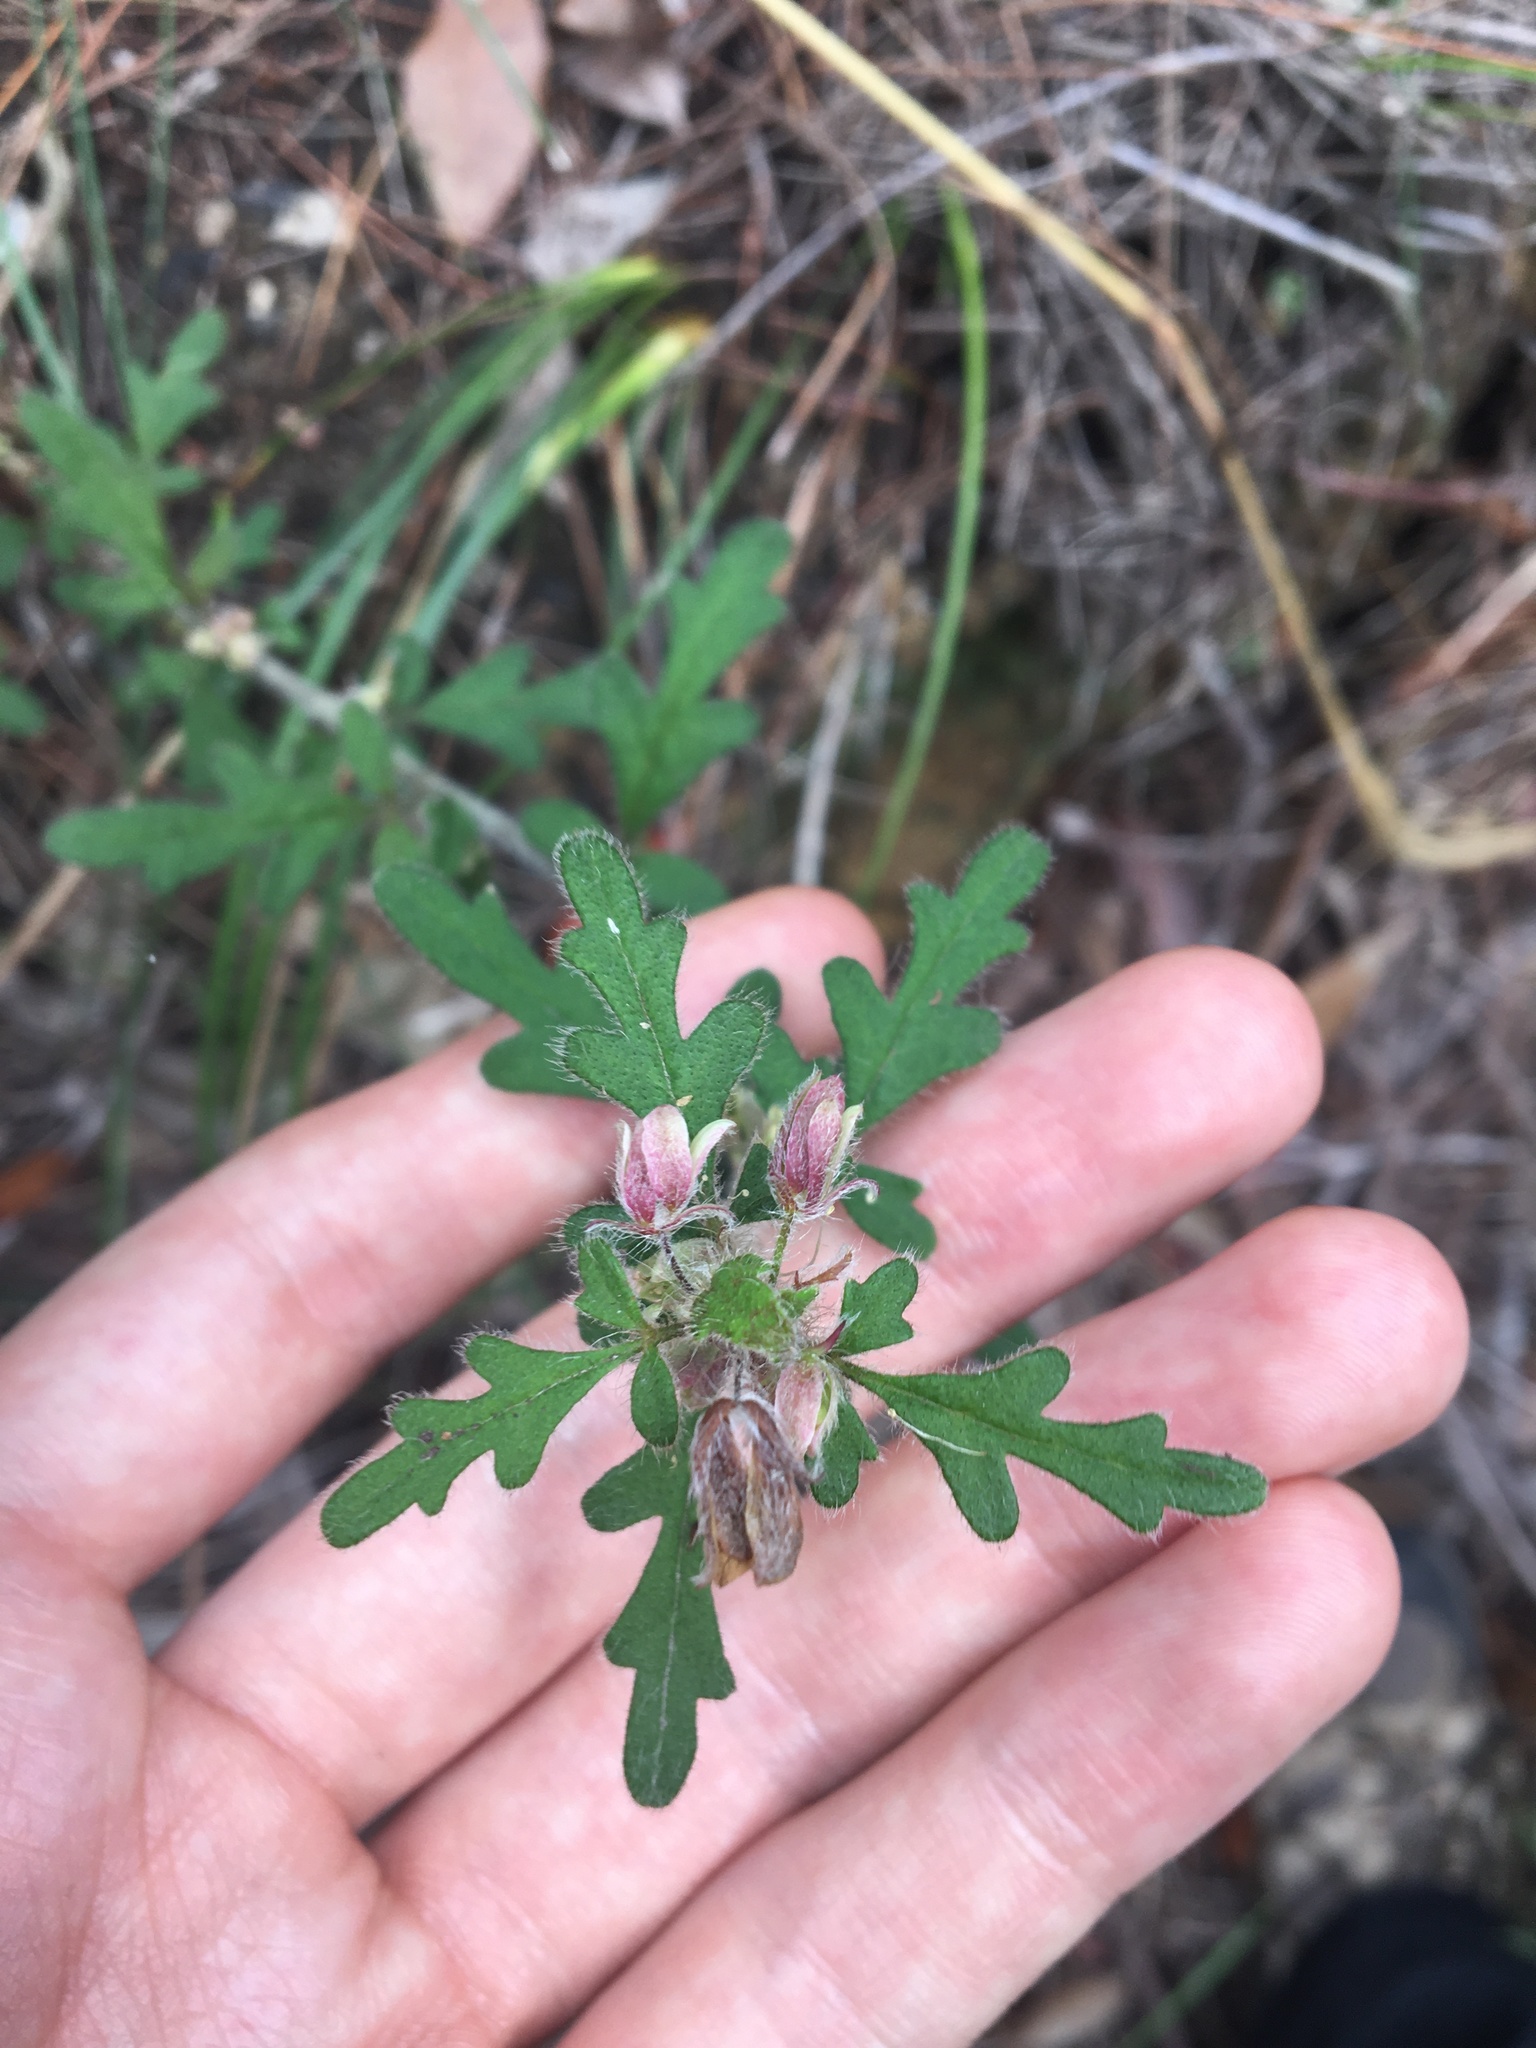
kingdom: Plantae
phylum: Tracheophyta
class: Magnoliopsida
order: Apiales
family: Apiaceae
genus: Xanthosia
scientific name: Xanthosia pilosa
